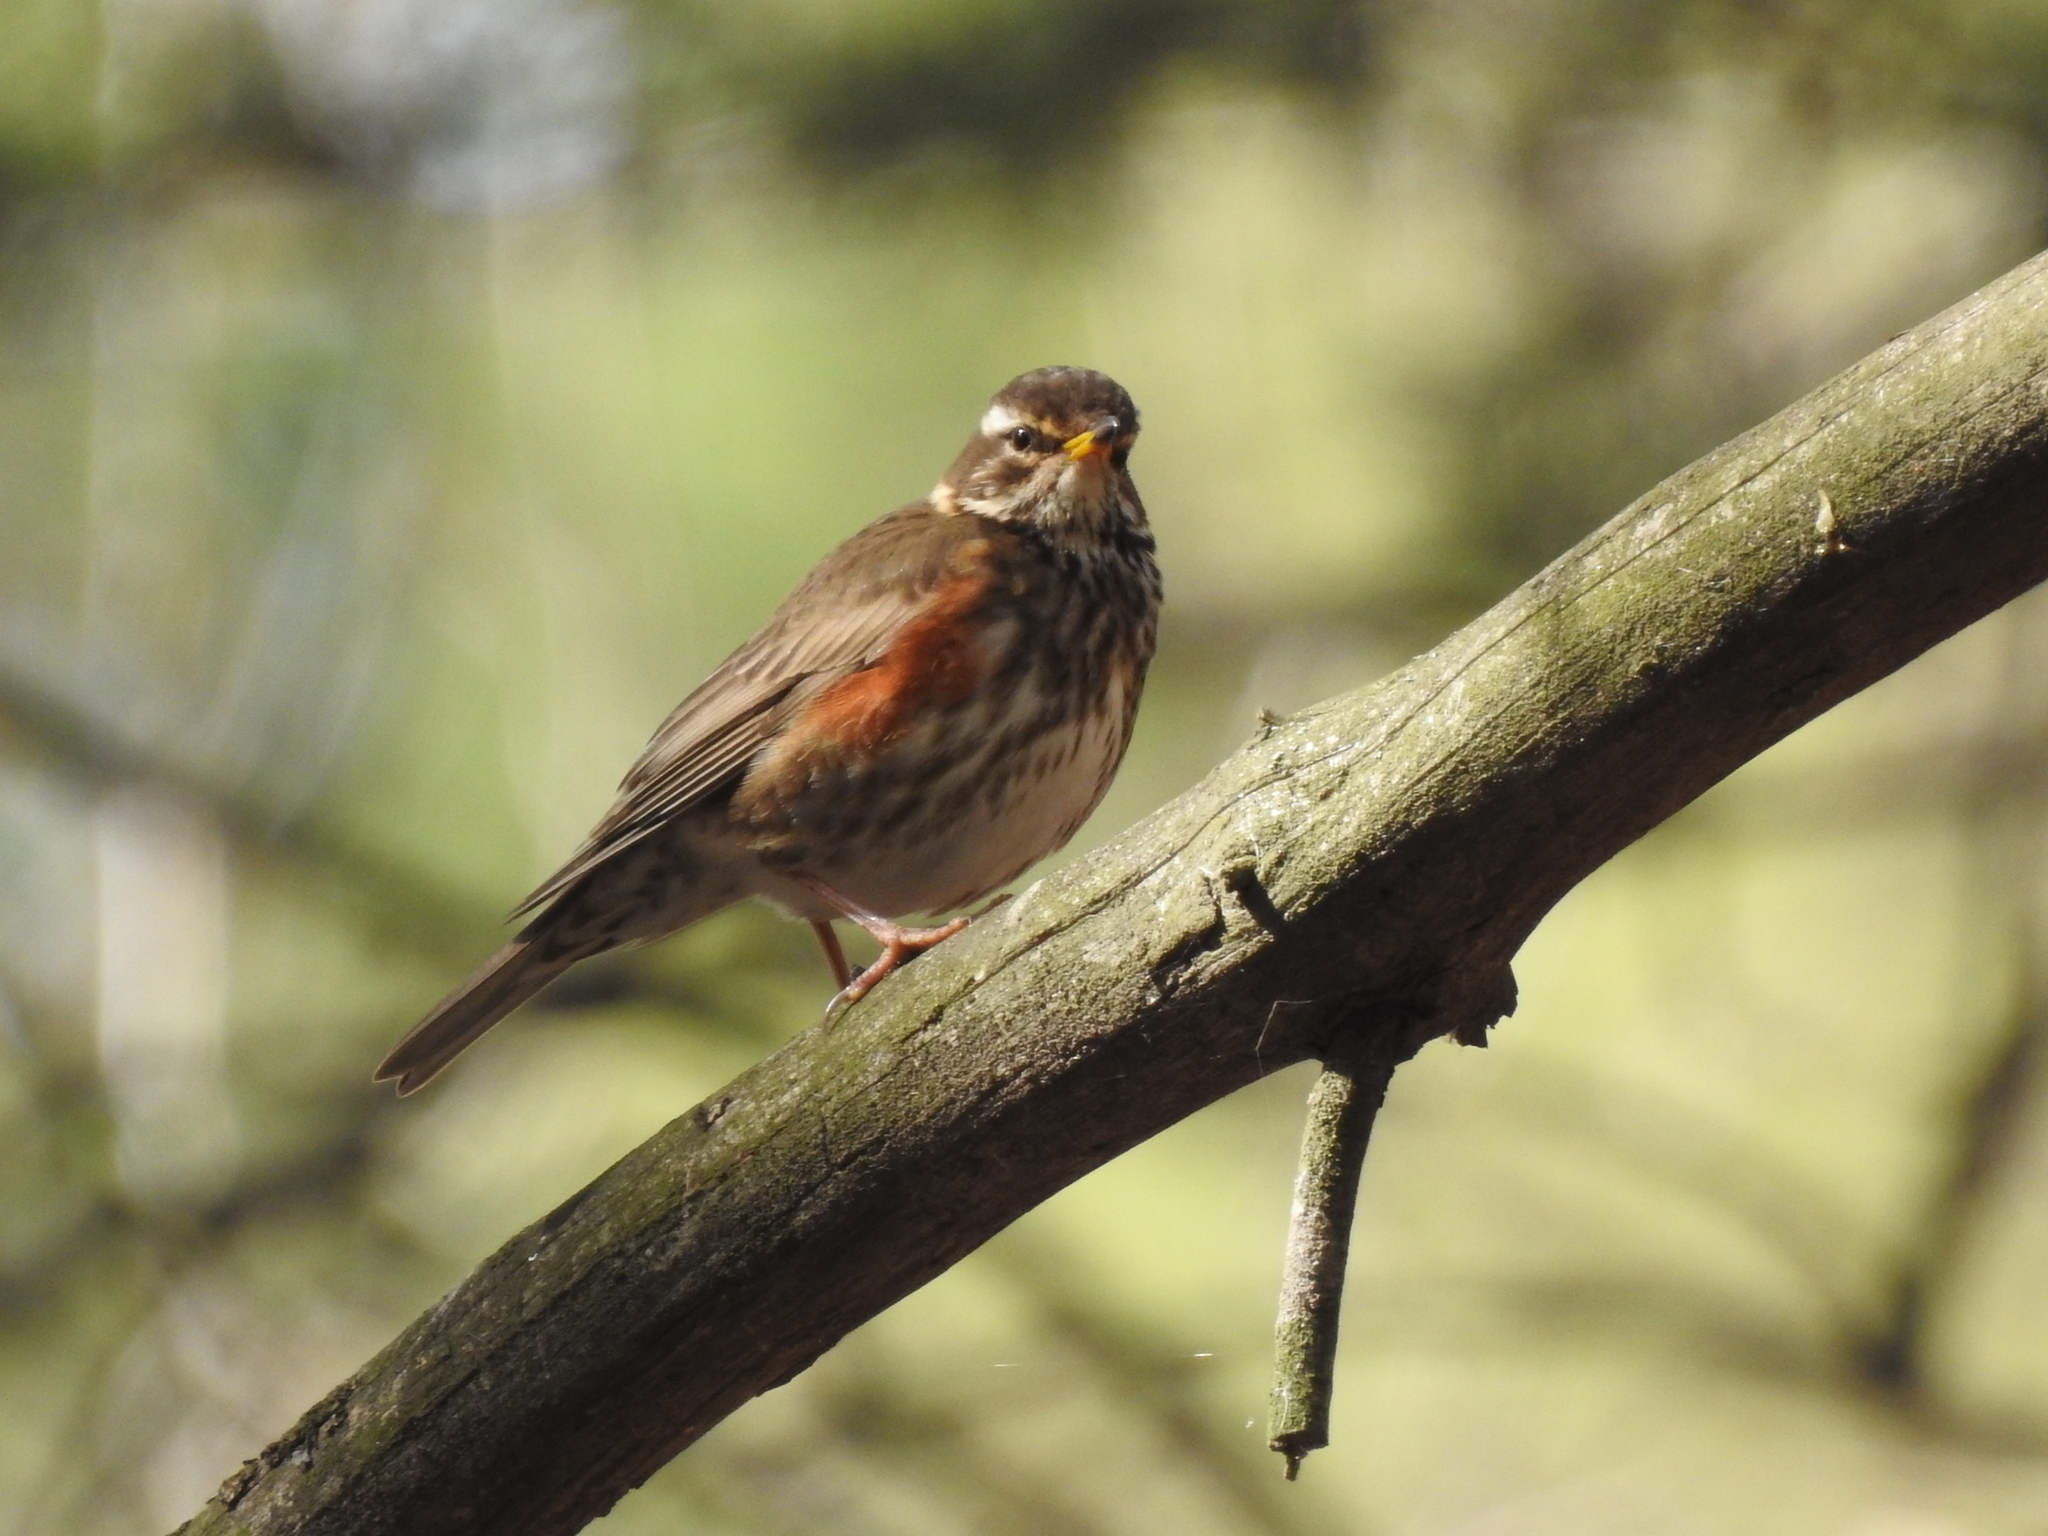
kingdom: Animalia
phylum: Chordata
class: Aves
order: Passeriformes
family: Turdidae
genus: Turdus
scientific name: Turdus iliacus
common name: Redwing
